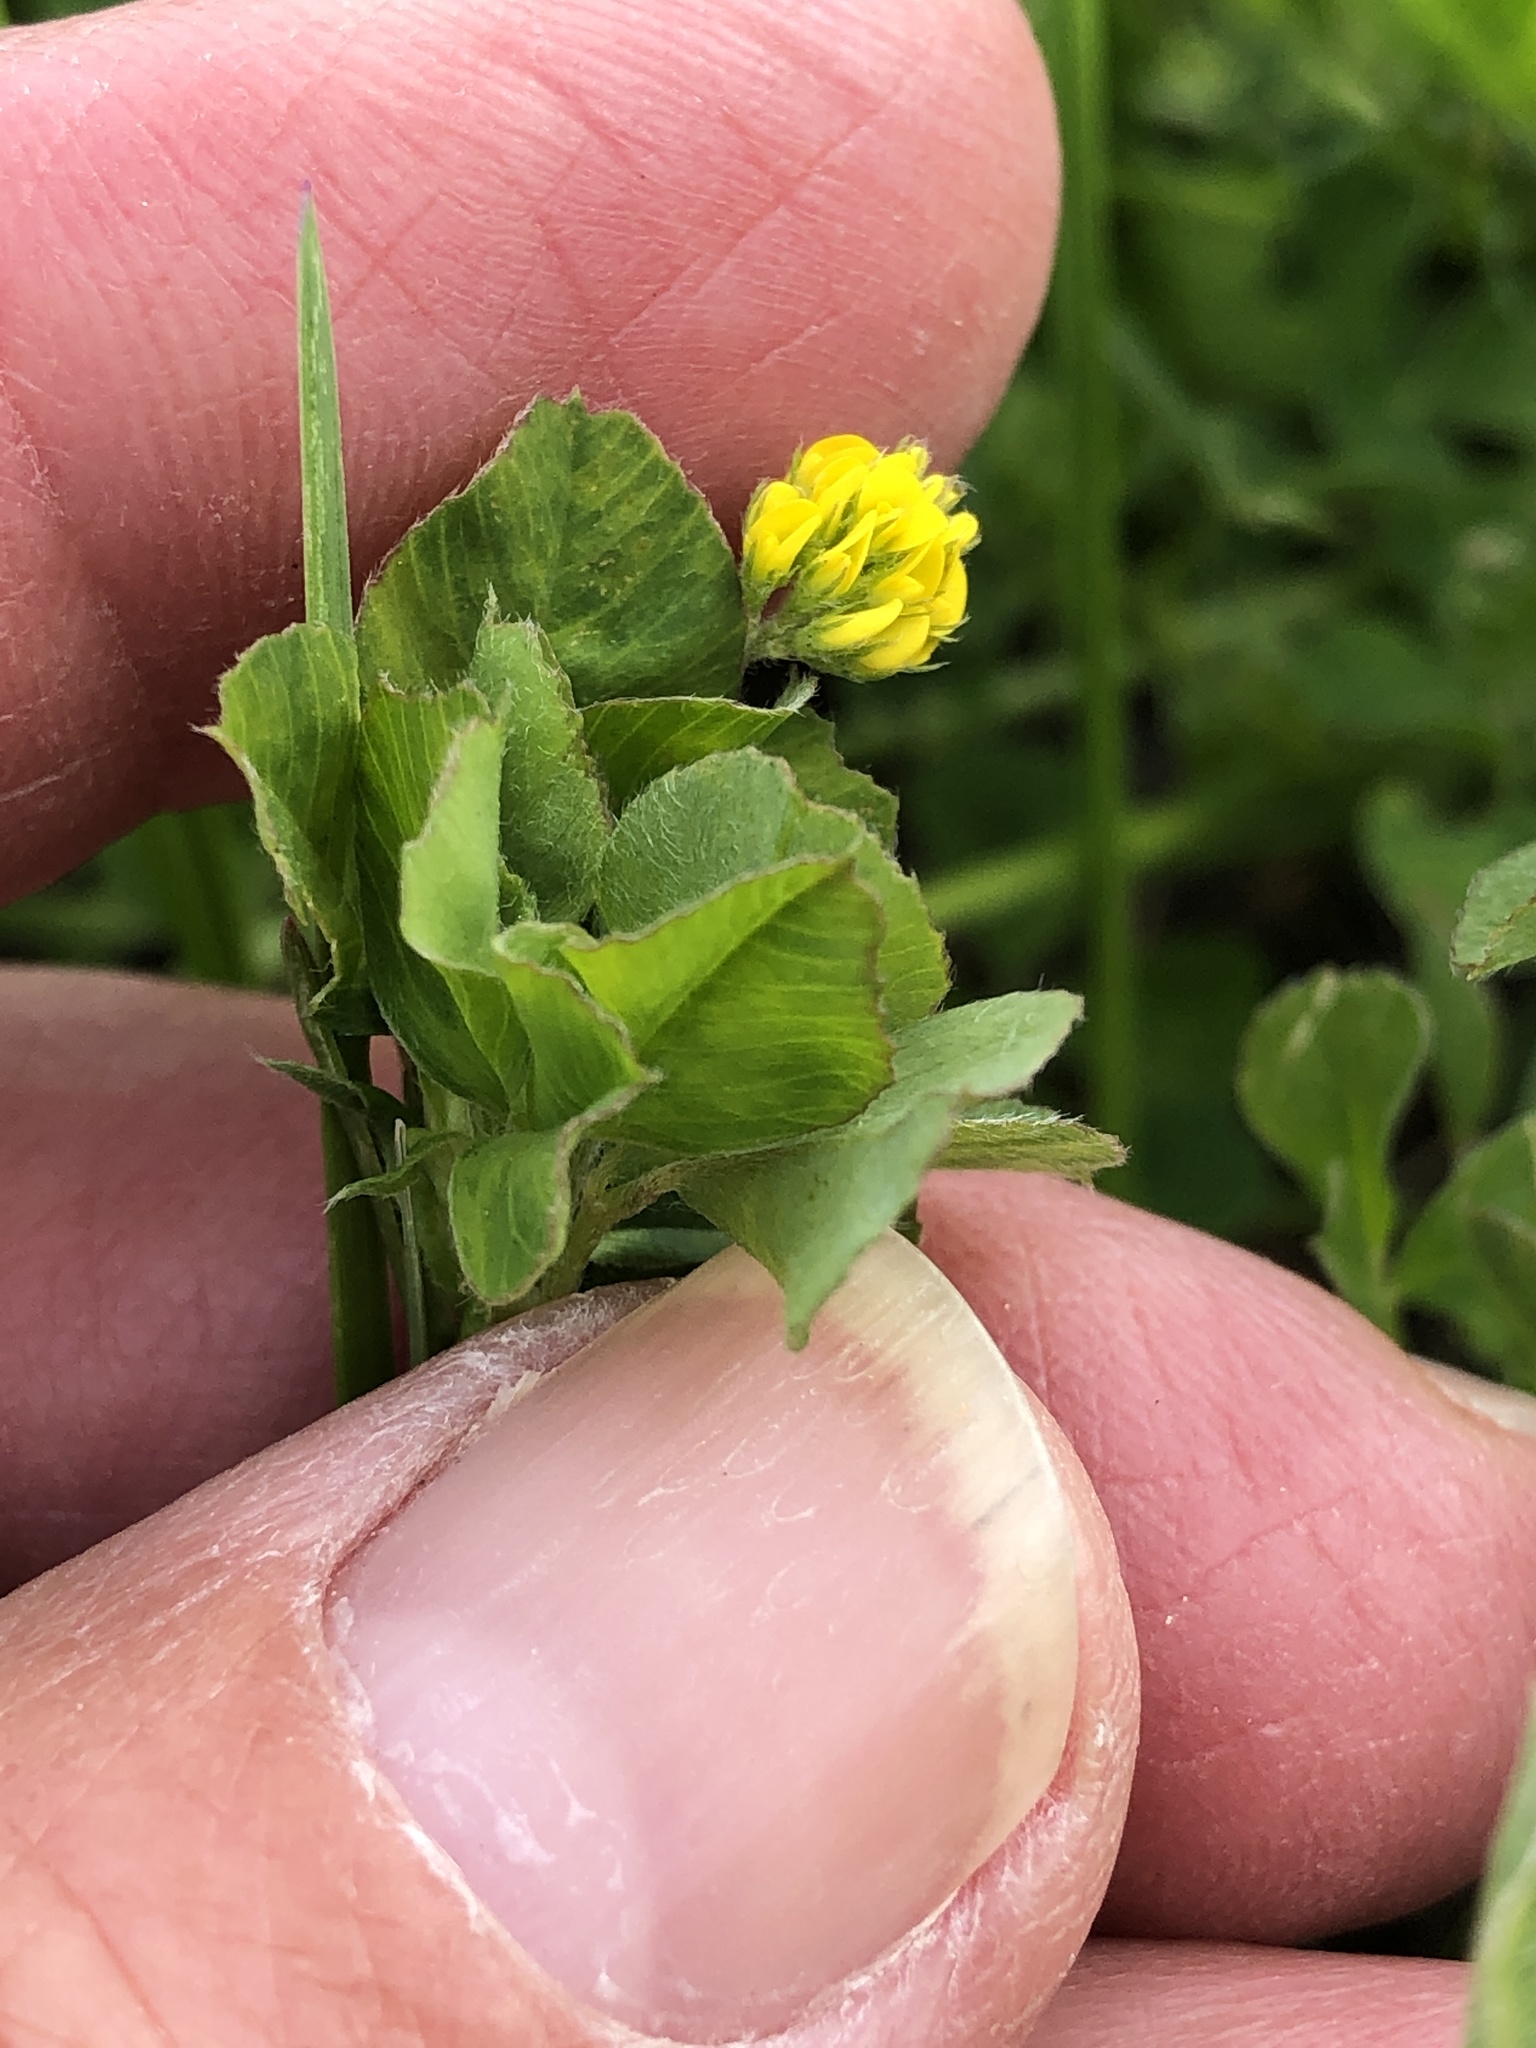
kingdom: Plantae
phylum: Tracheophyta
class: Magnoliopsida
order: Fabales
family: Fabaceae
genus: Medicago
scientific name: Medicago lupulina
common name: Black medick
